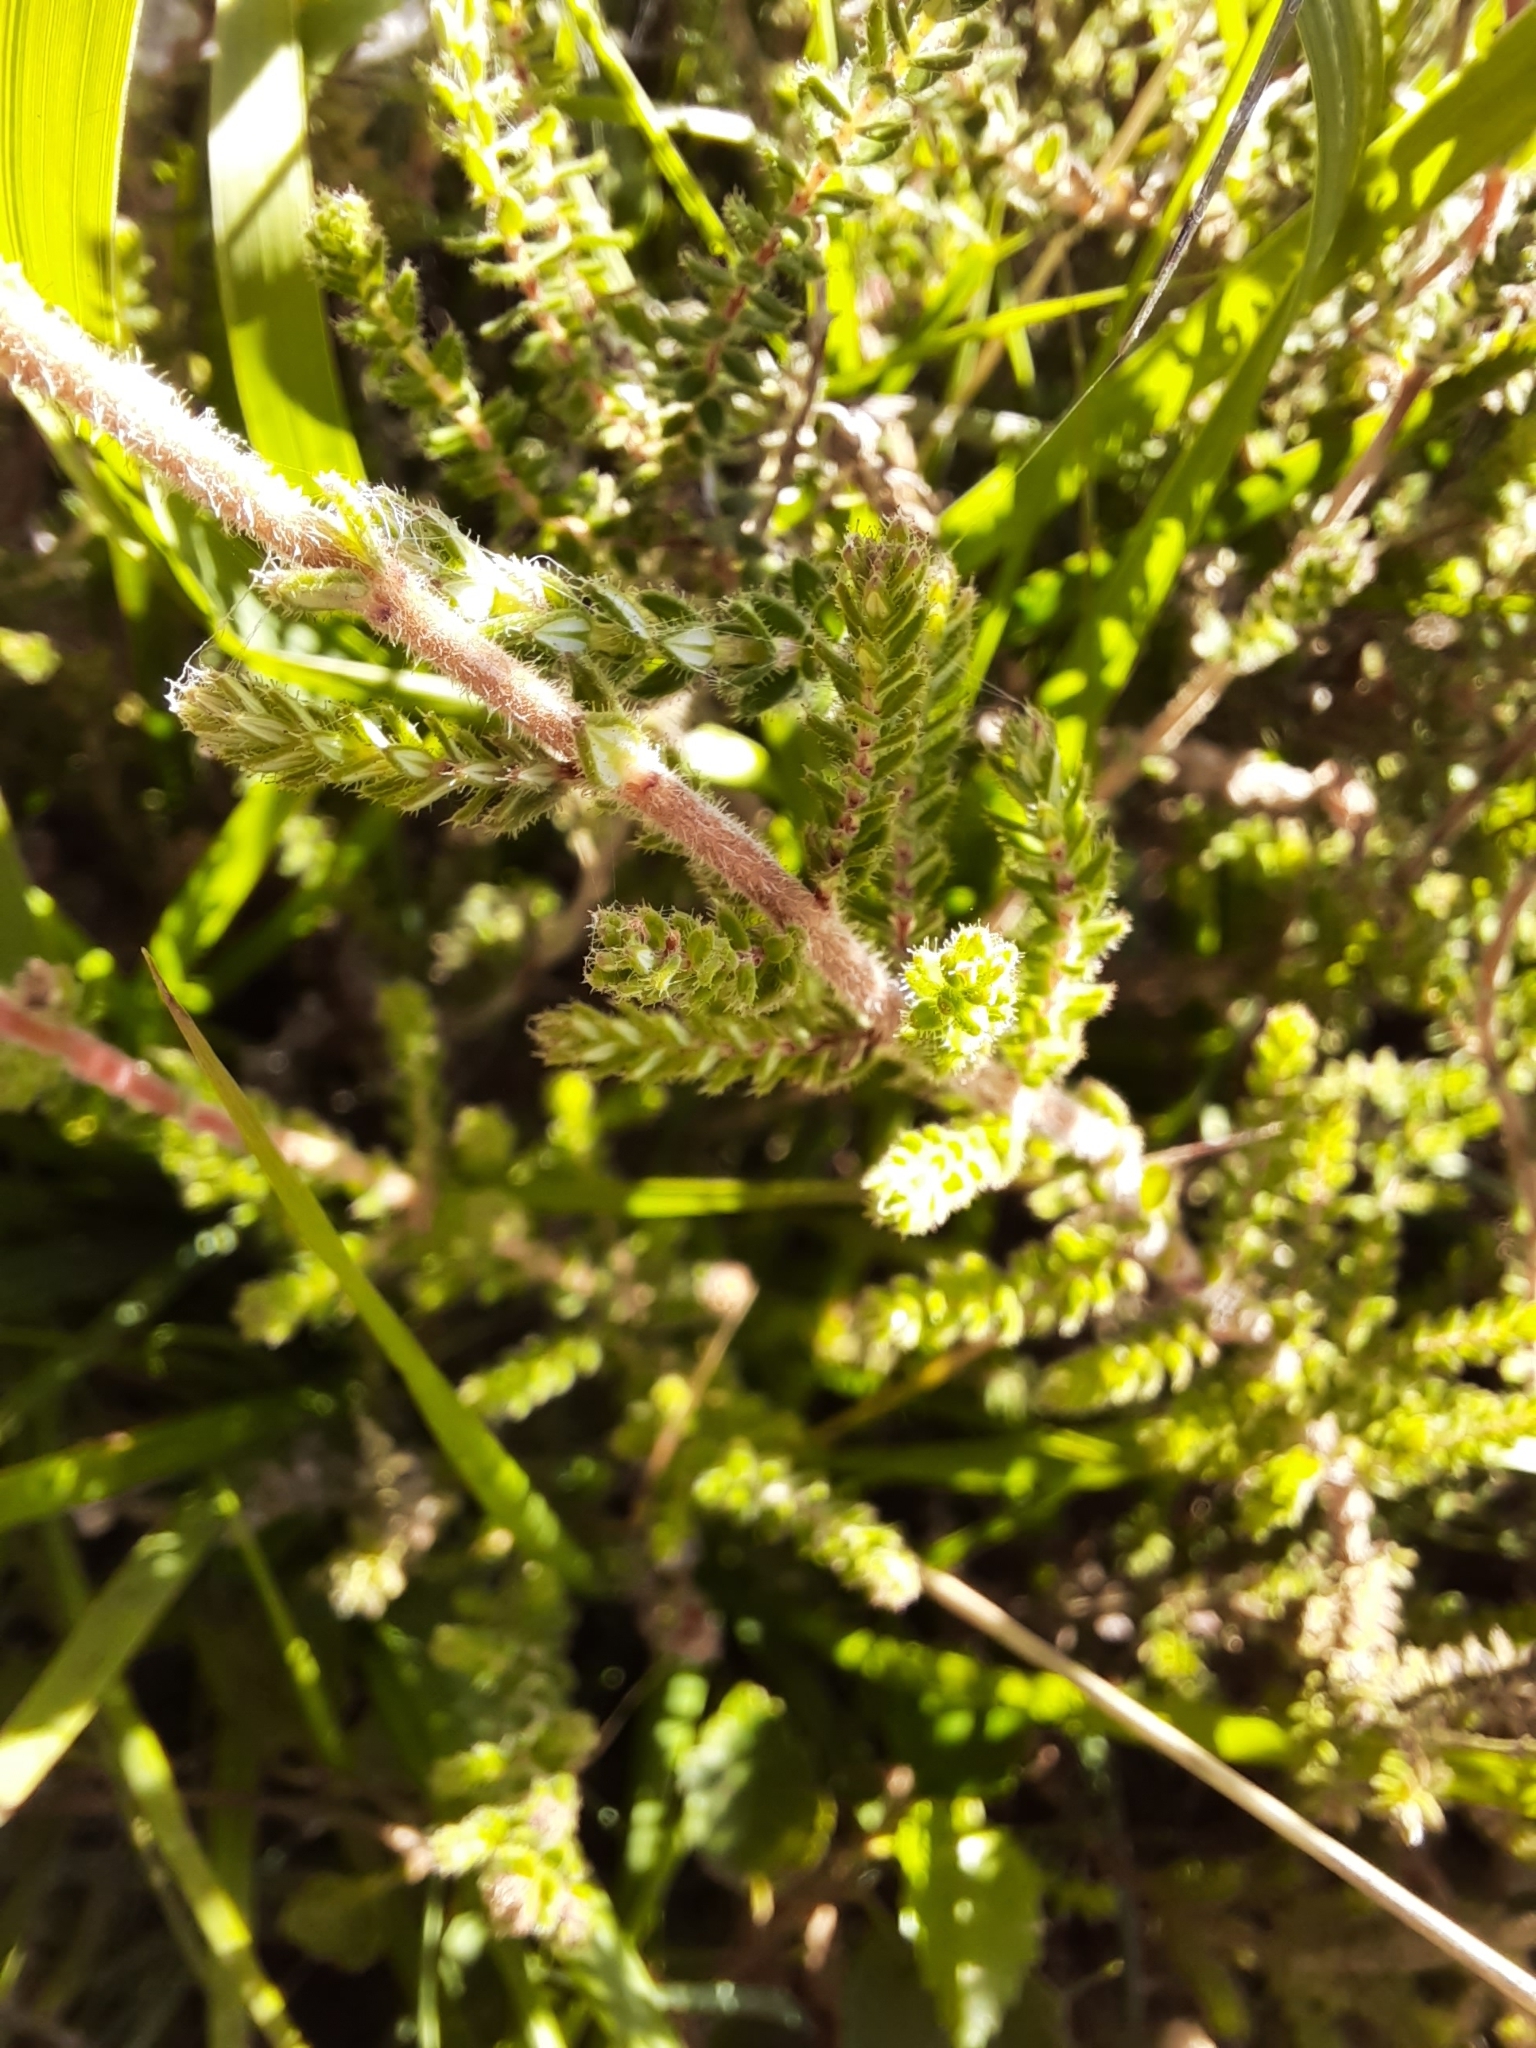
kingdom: Plantae
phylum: Tracheophyta
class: Magnoliopsida
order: Ericales
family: Ericaceae
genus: Erica
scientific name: Erica ciliaris
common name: Dorset heath
